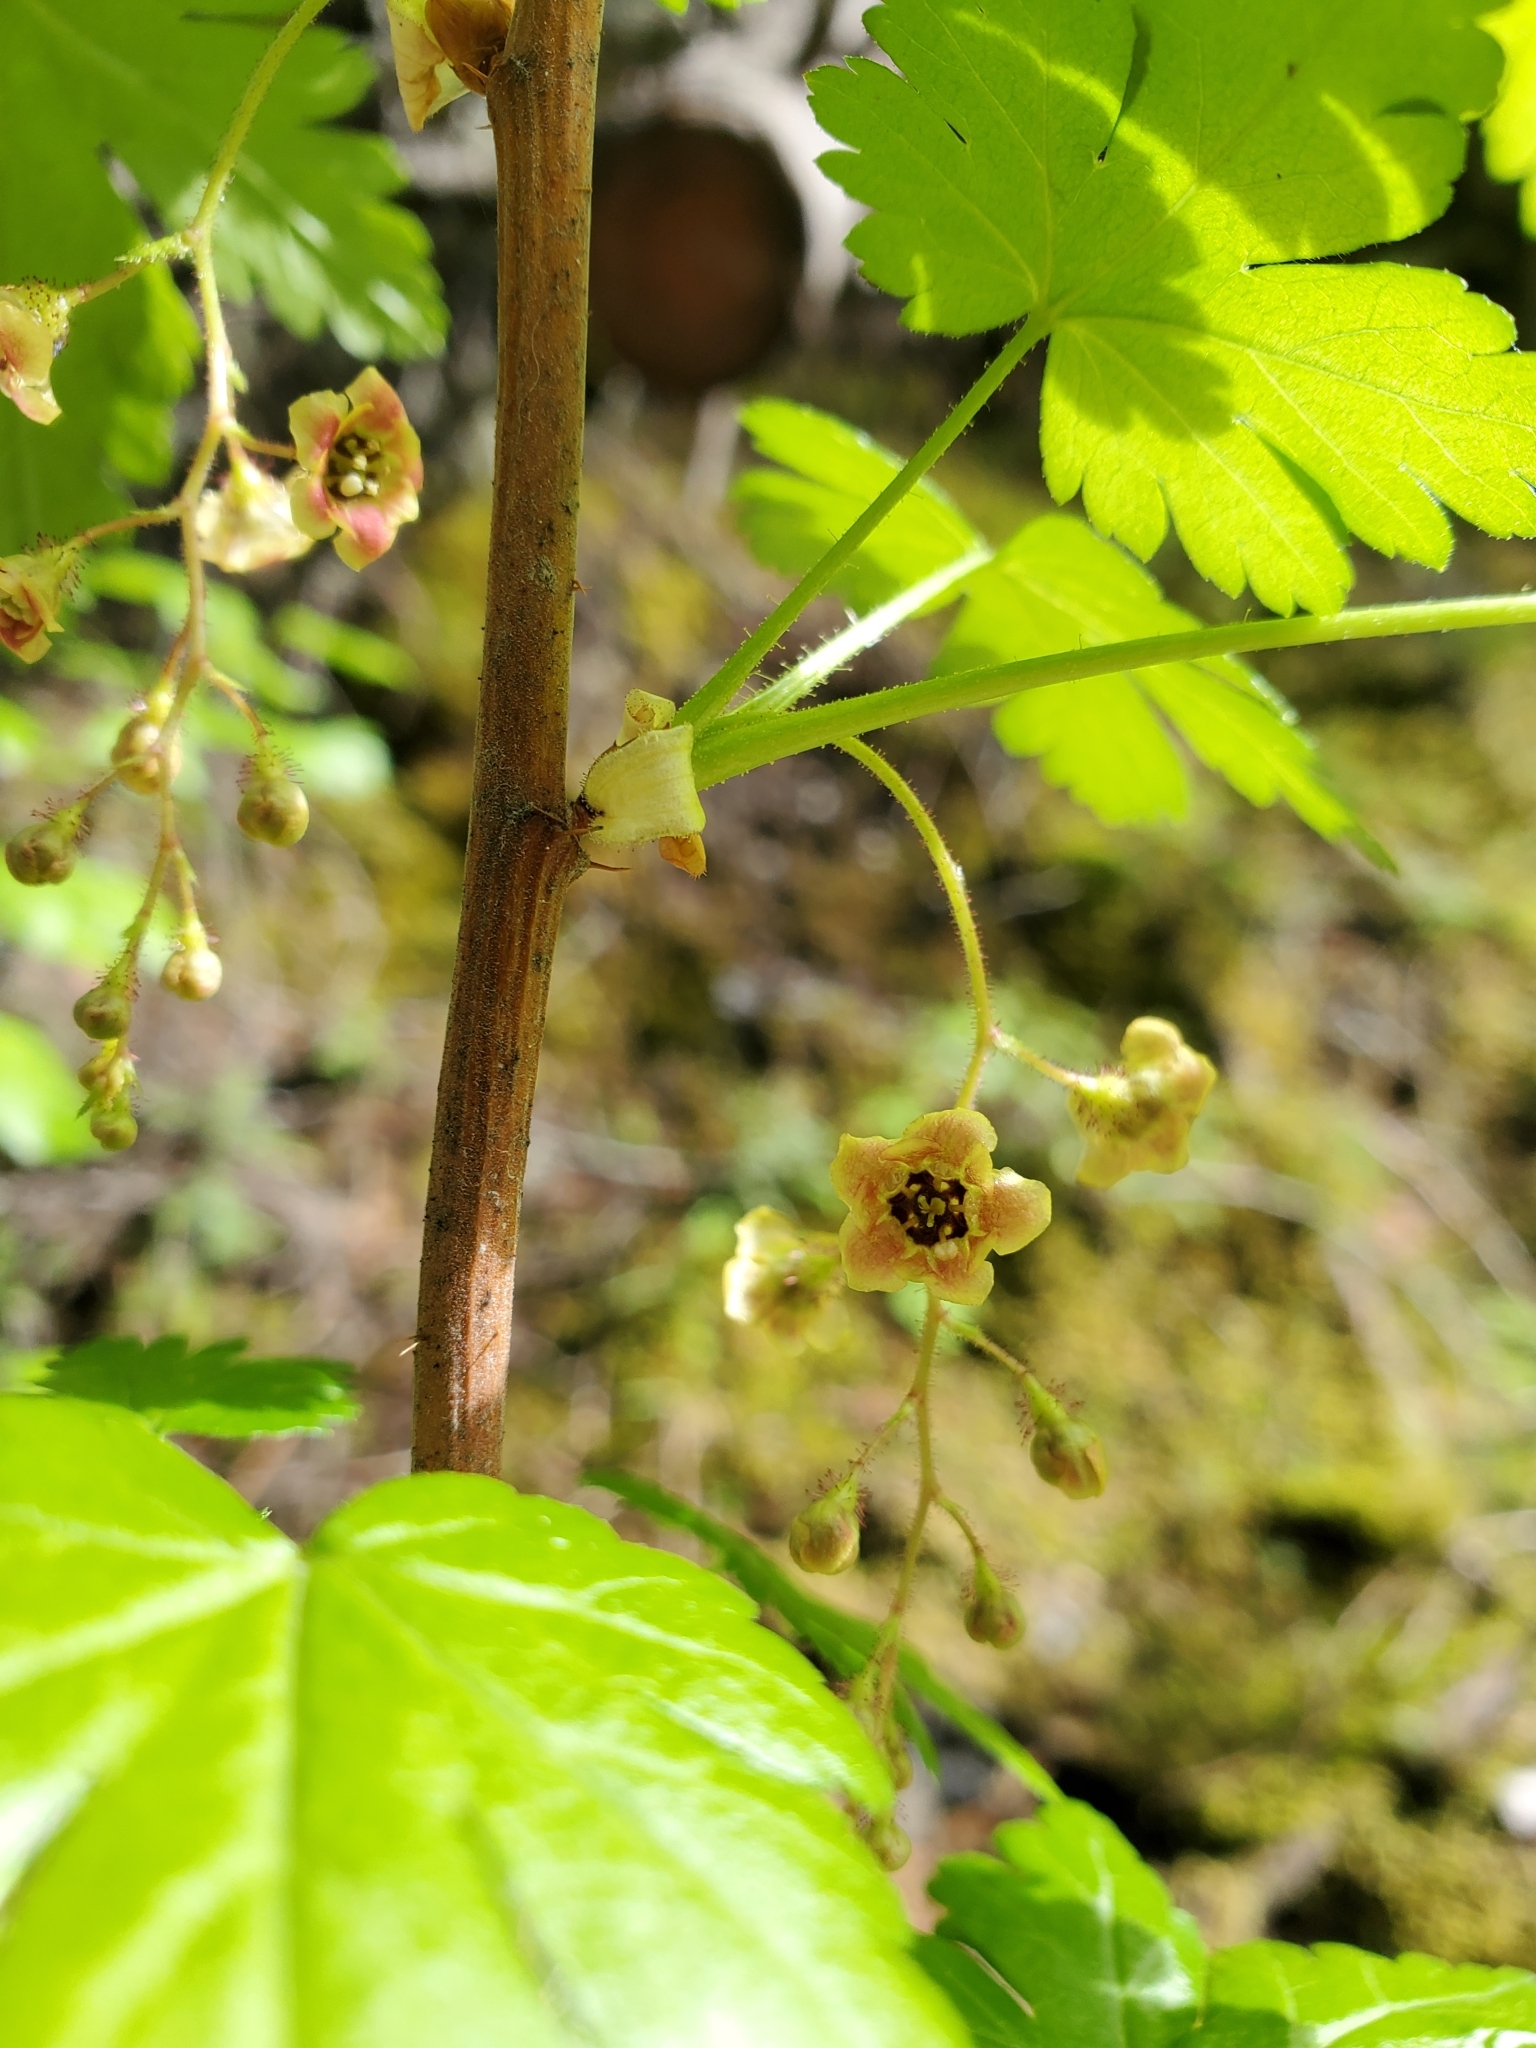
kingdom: Plantae
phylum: Tracheophyta
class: Magnoliopsida
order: Saxifragales
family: Grossulariaceae
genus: Ribes
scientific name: Ribes lacustre
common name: Black gooseberry
